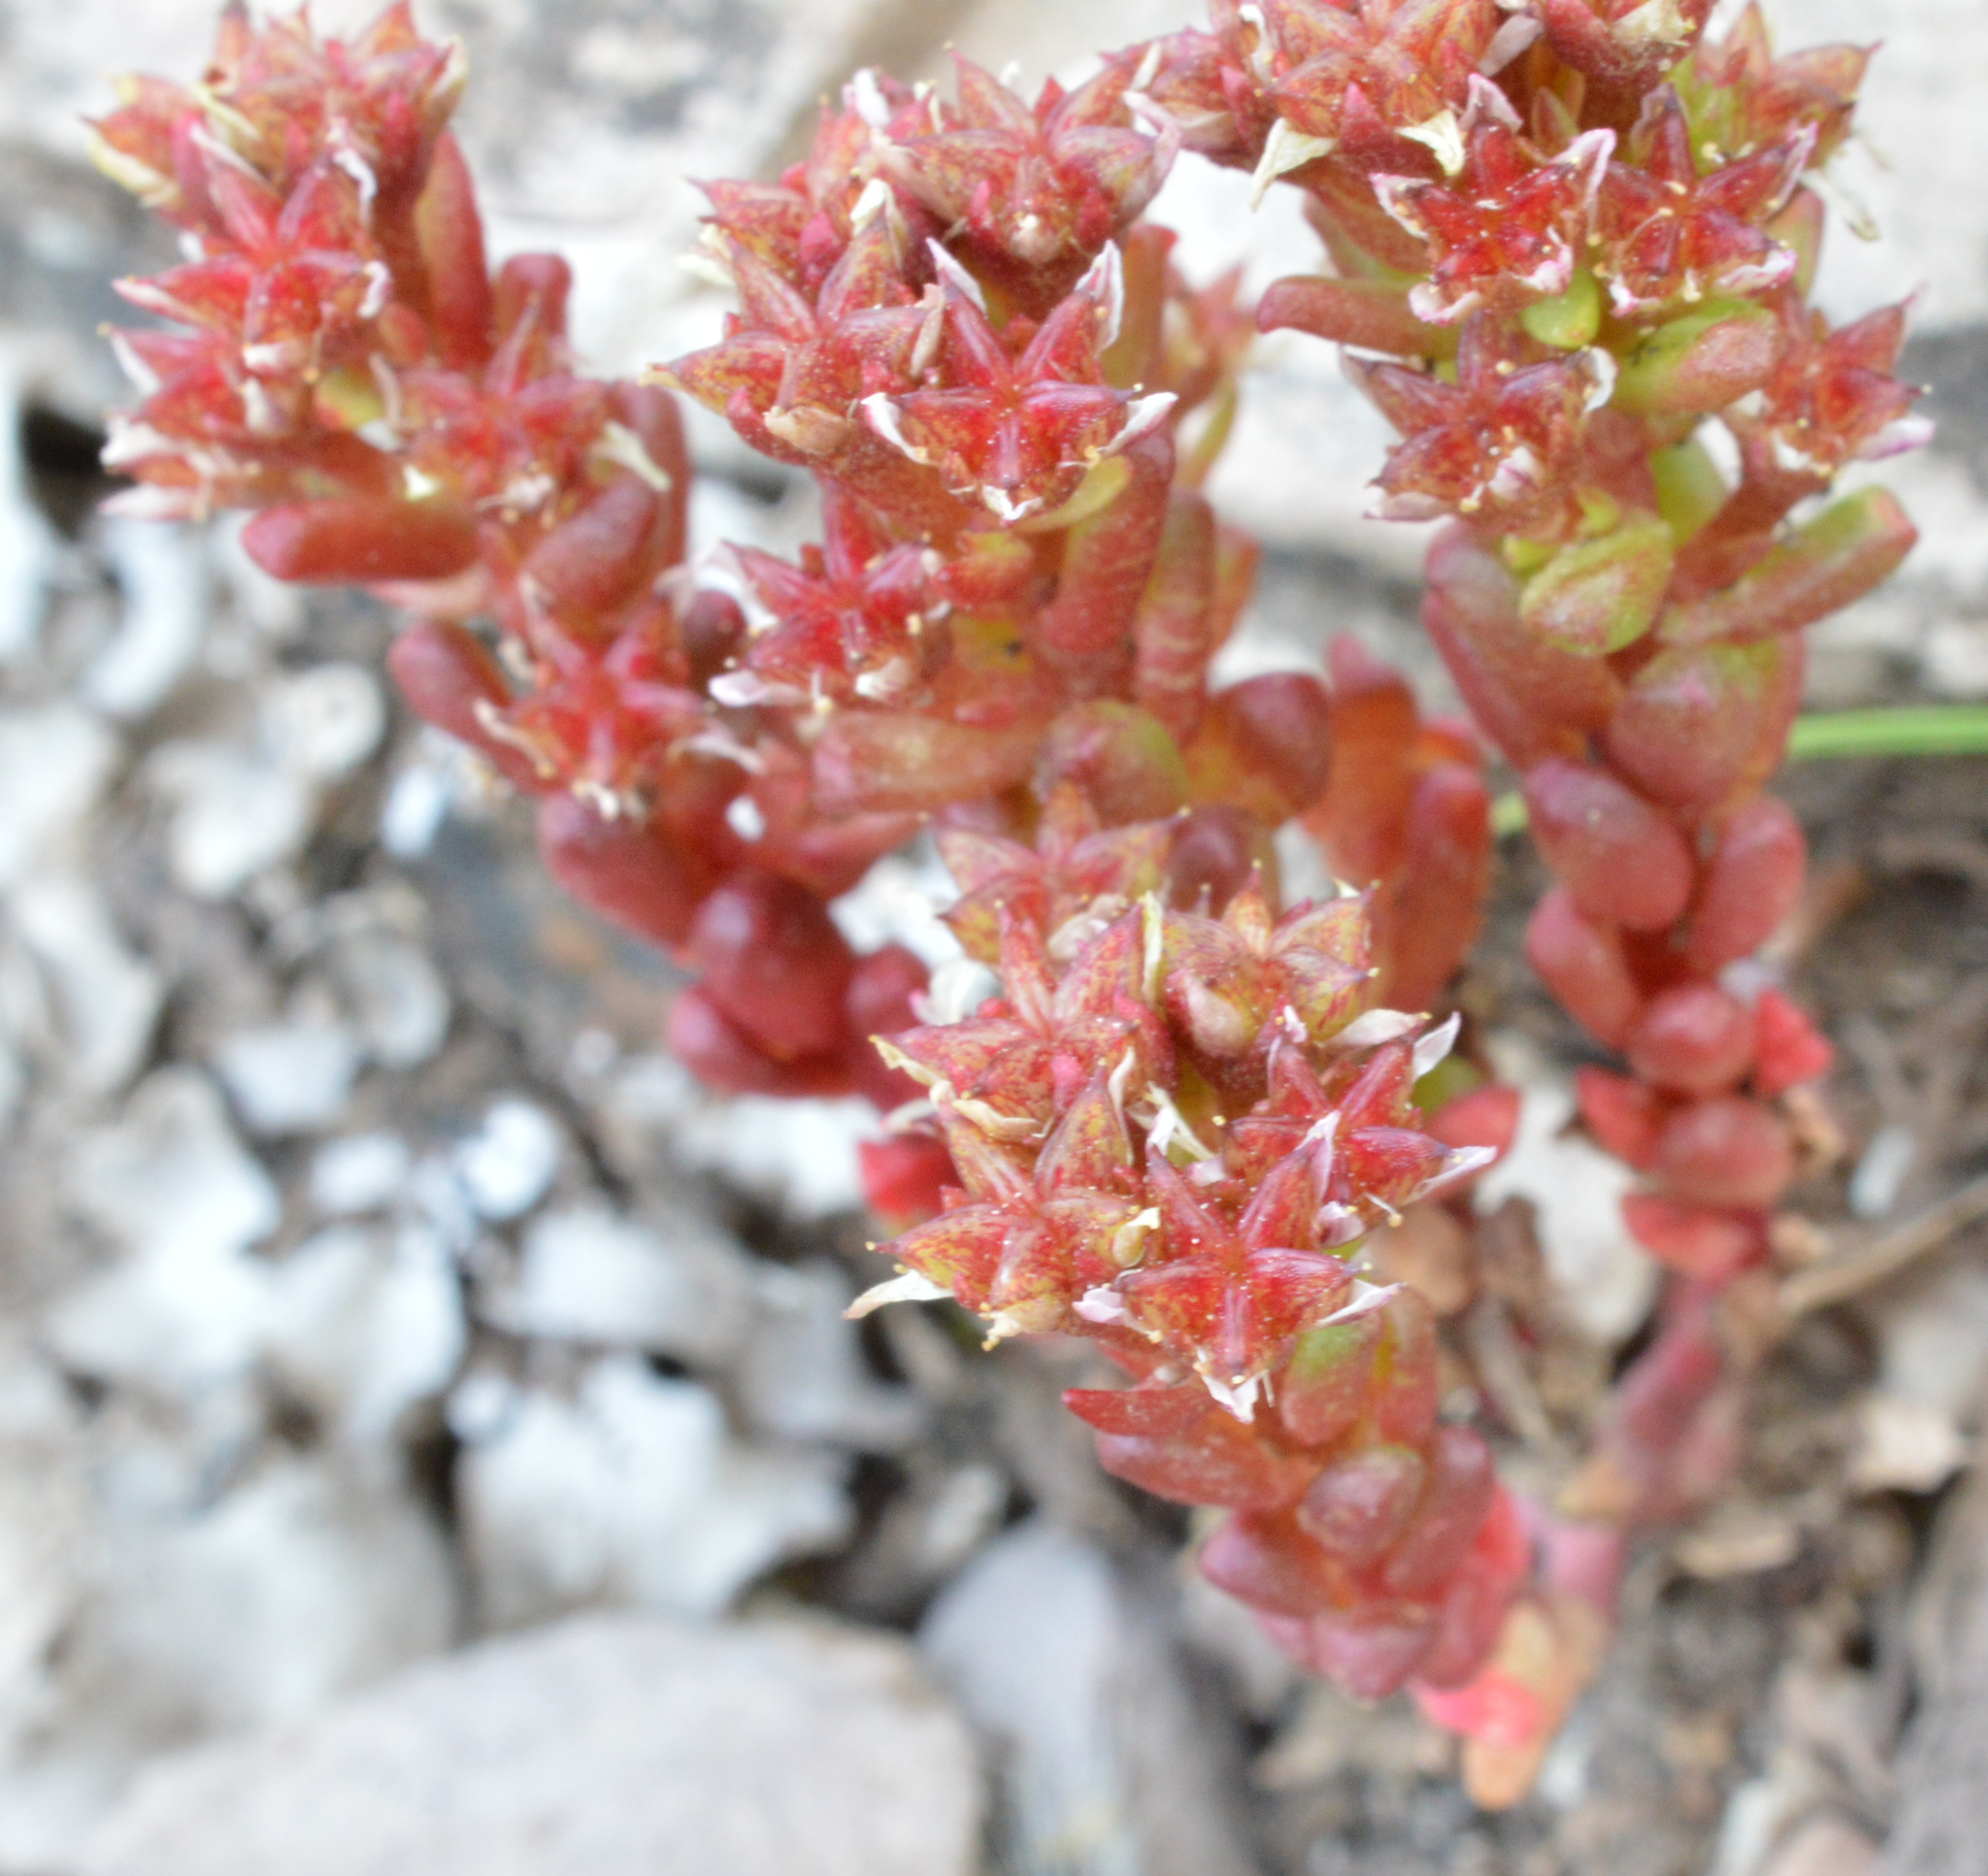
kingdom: Plantae
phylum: Tracheophyta
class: Magnoliopsida
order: Saxifragales
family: Crassulaceae
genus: Sedum
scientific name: Sedum atratum
